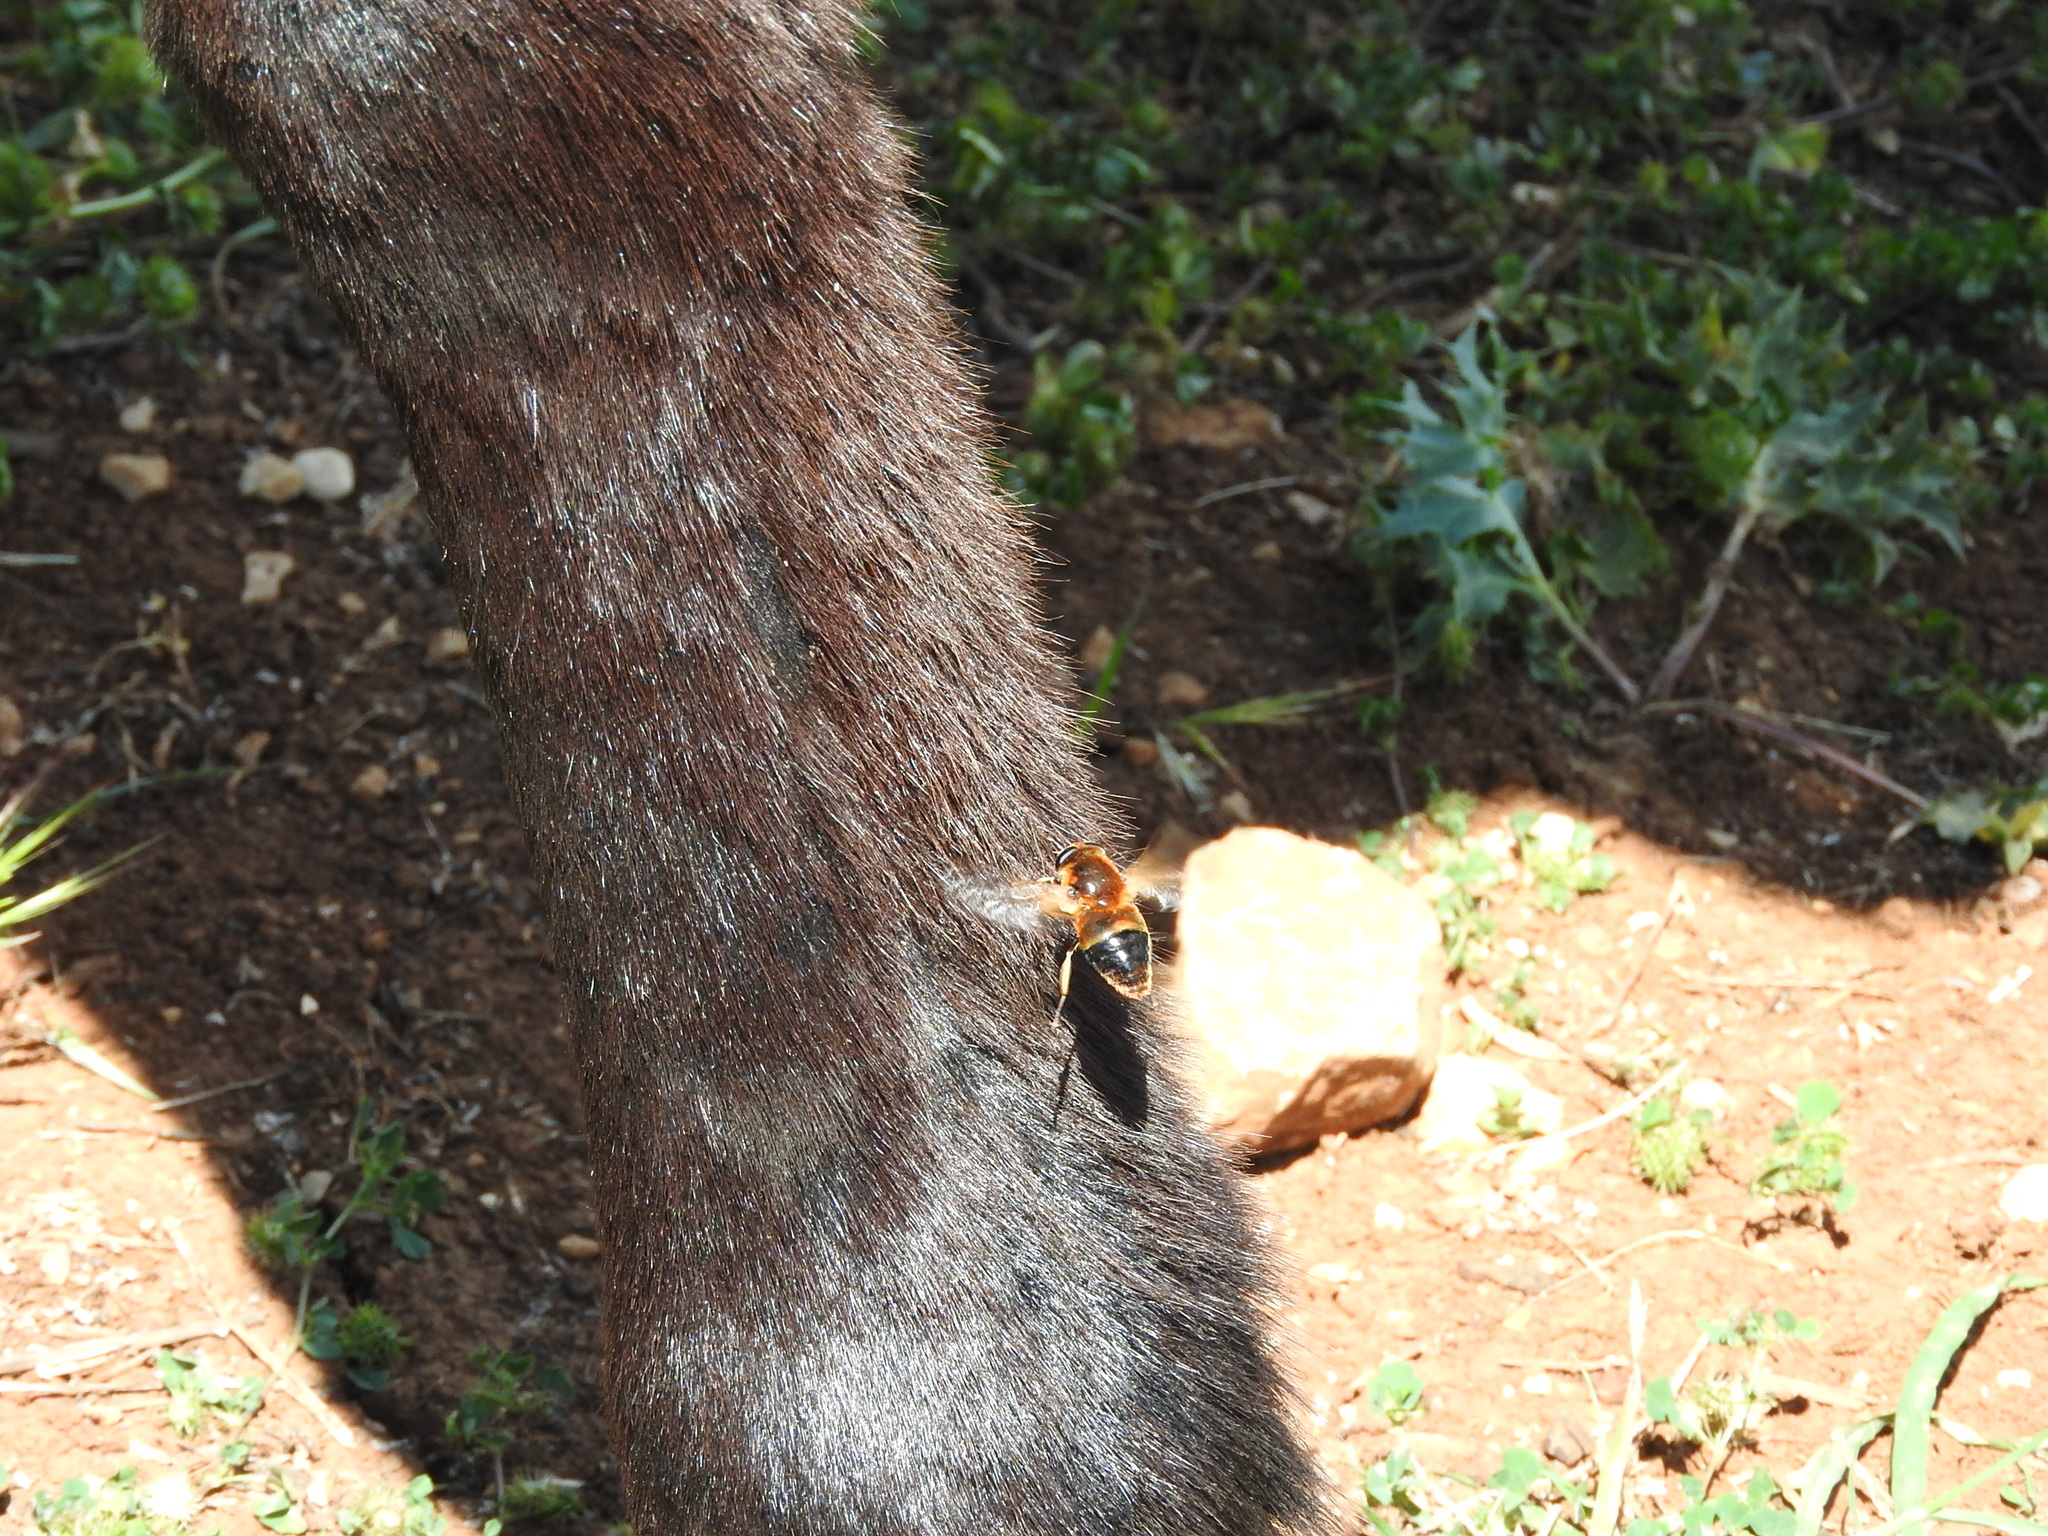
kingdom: Animalia
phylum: Arthropoda
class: Insecta
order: Diptera
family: Tabanidae
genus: Therioplectes
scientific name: Therioplectes gigas
